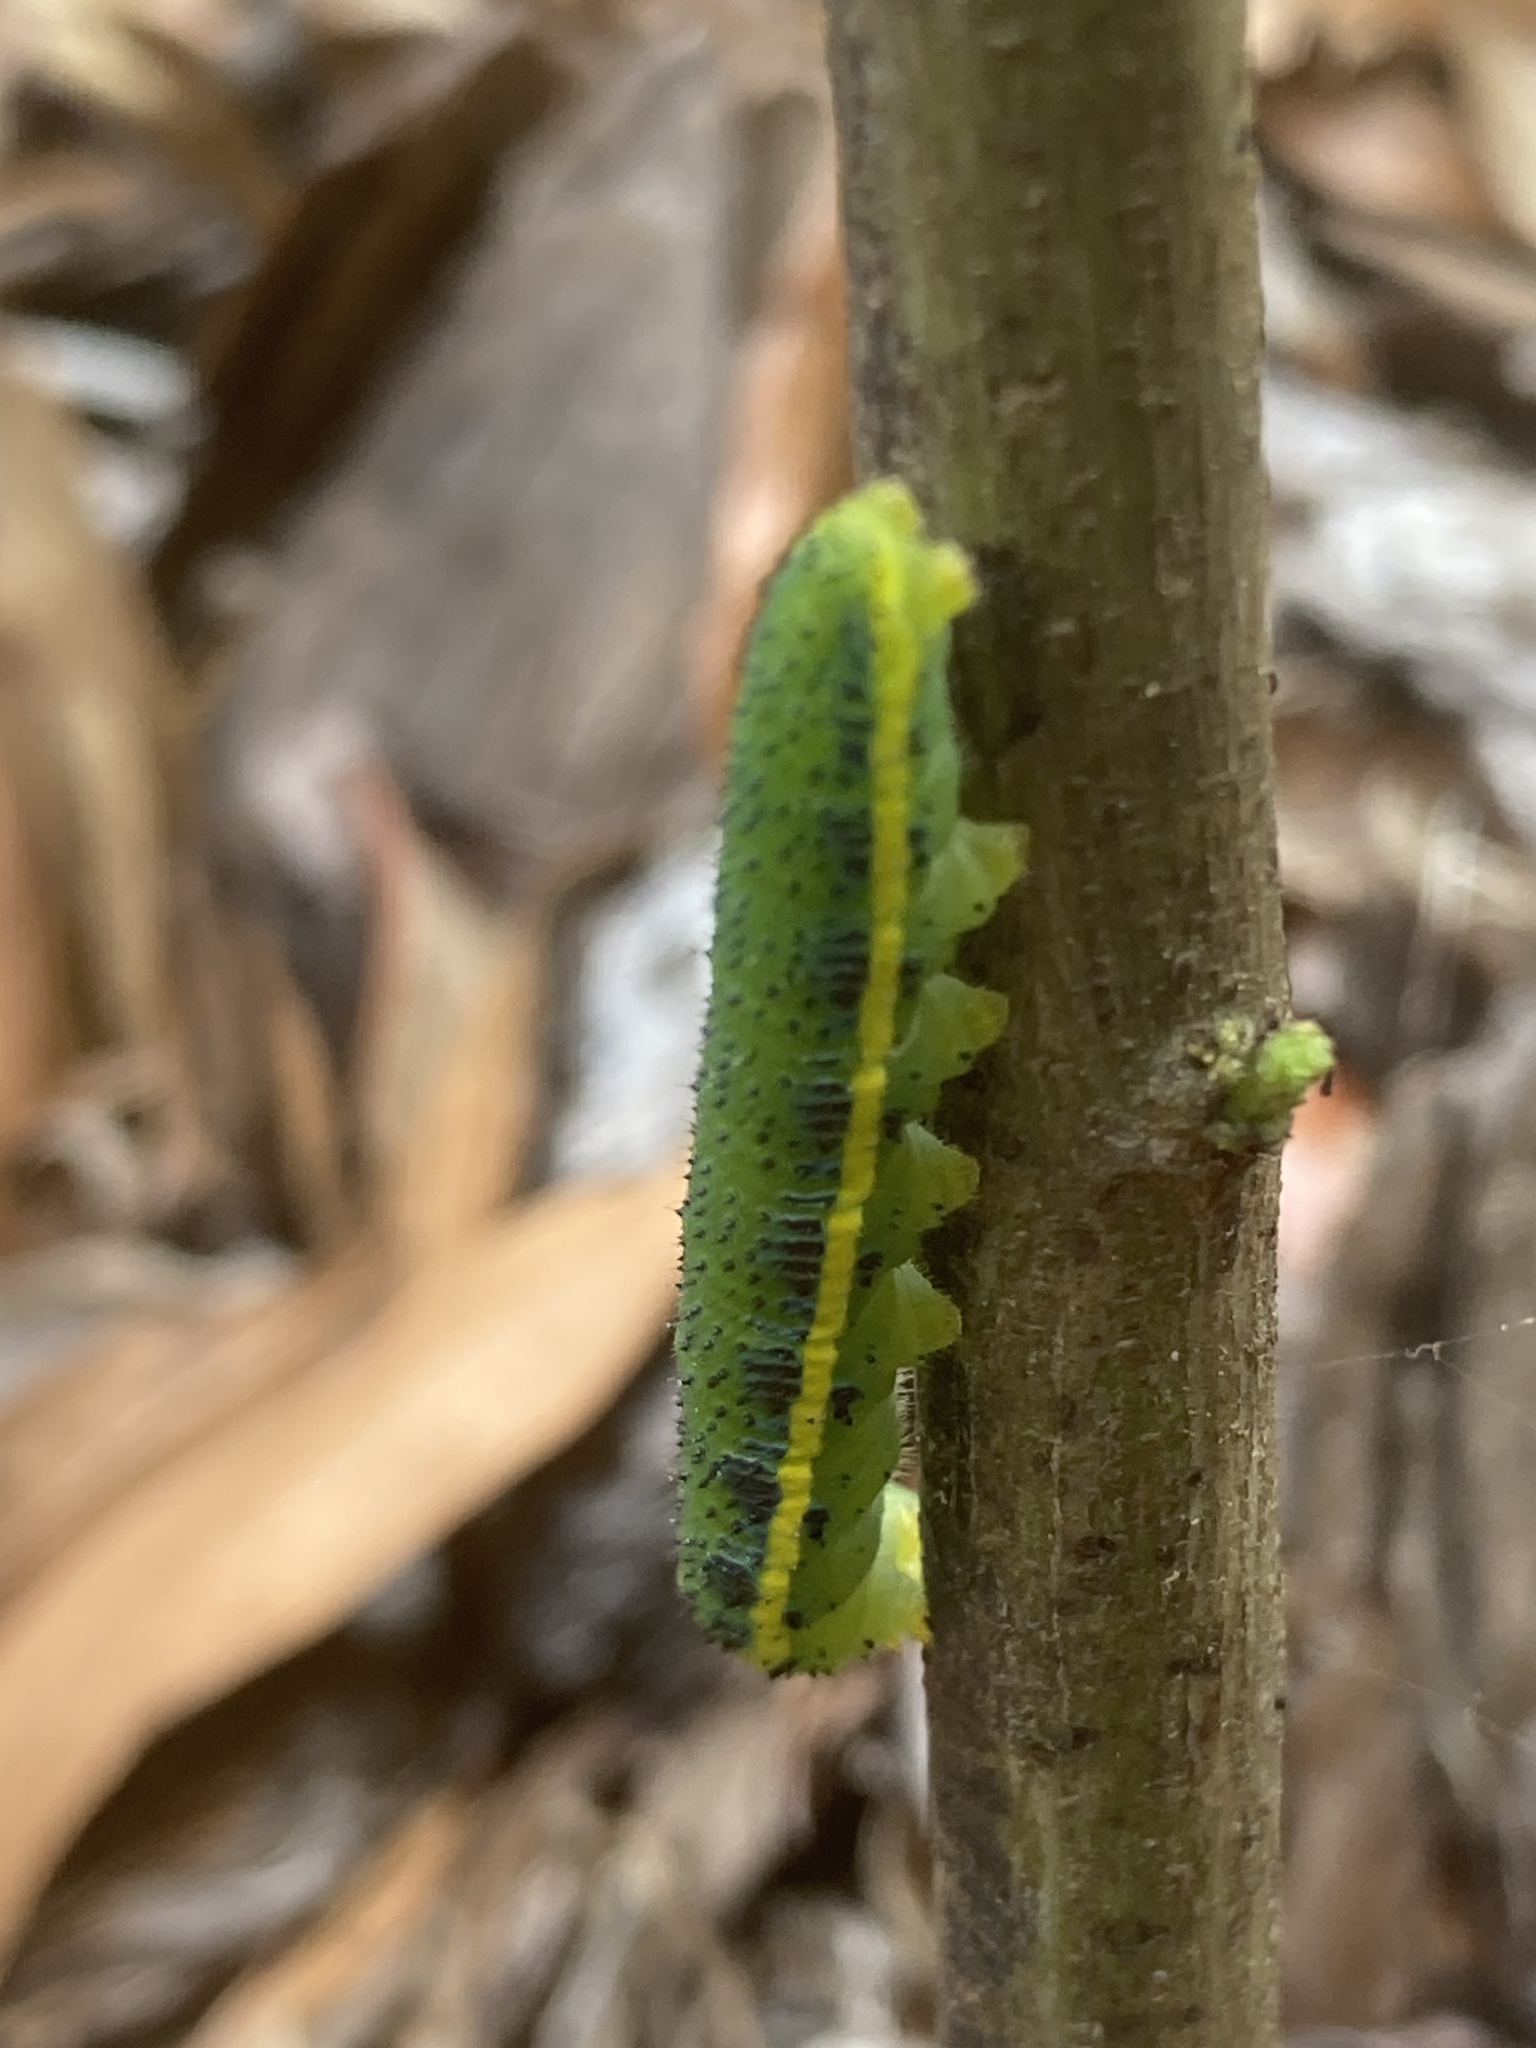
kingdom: Animalia
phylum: Arthropoda
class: Insecta
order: Lepidoptera
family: Pieridae
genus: Phoebis
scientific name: Phoebis sennae
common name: Cloudless sulphur
